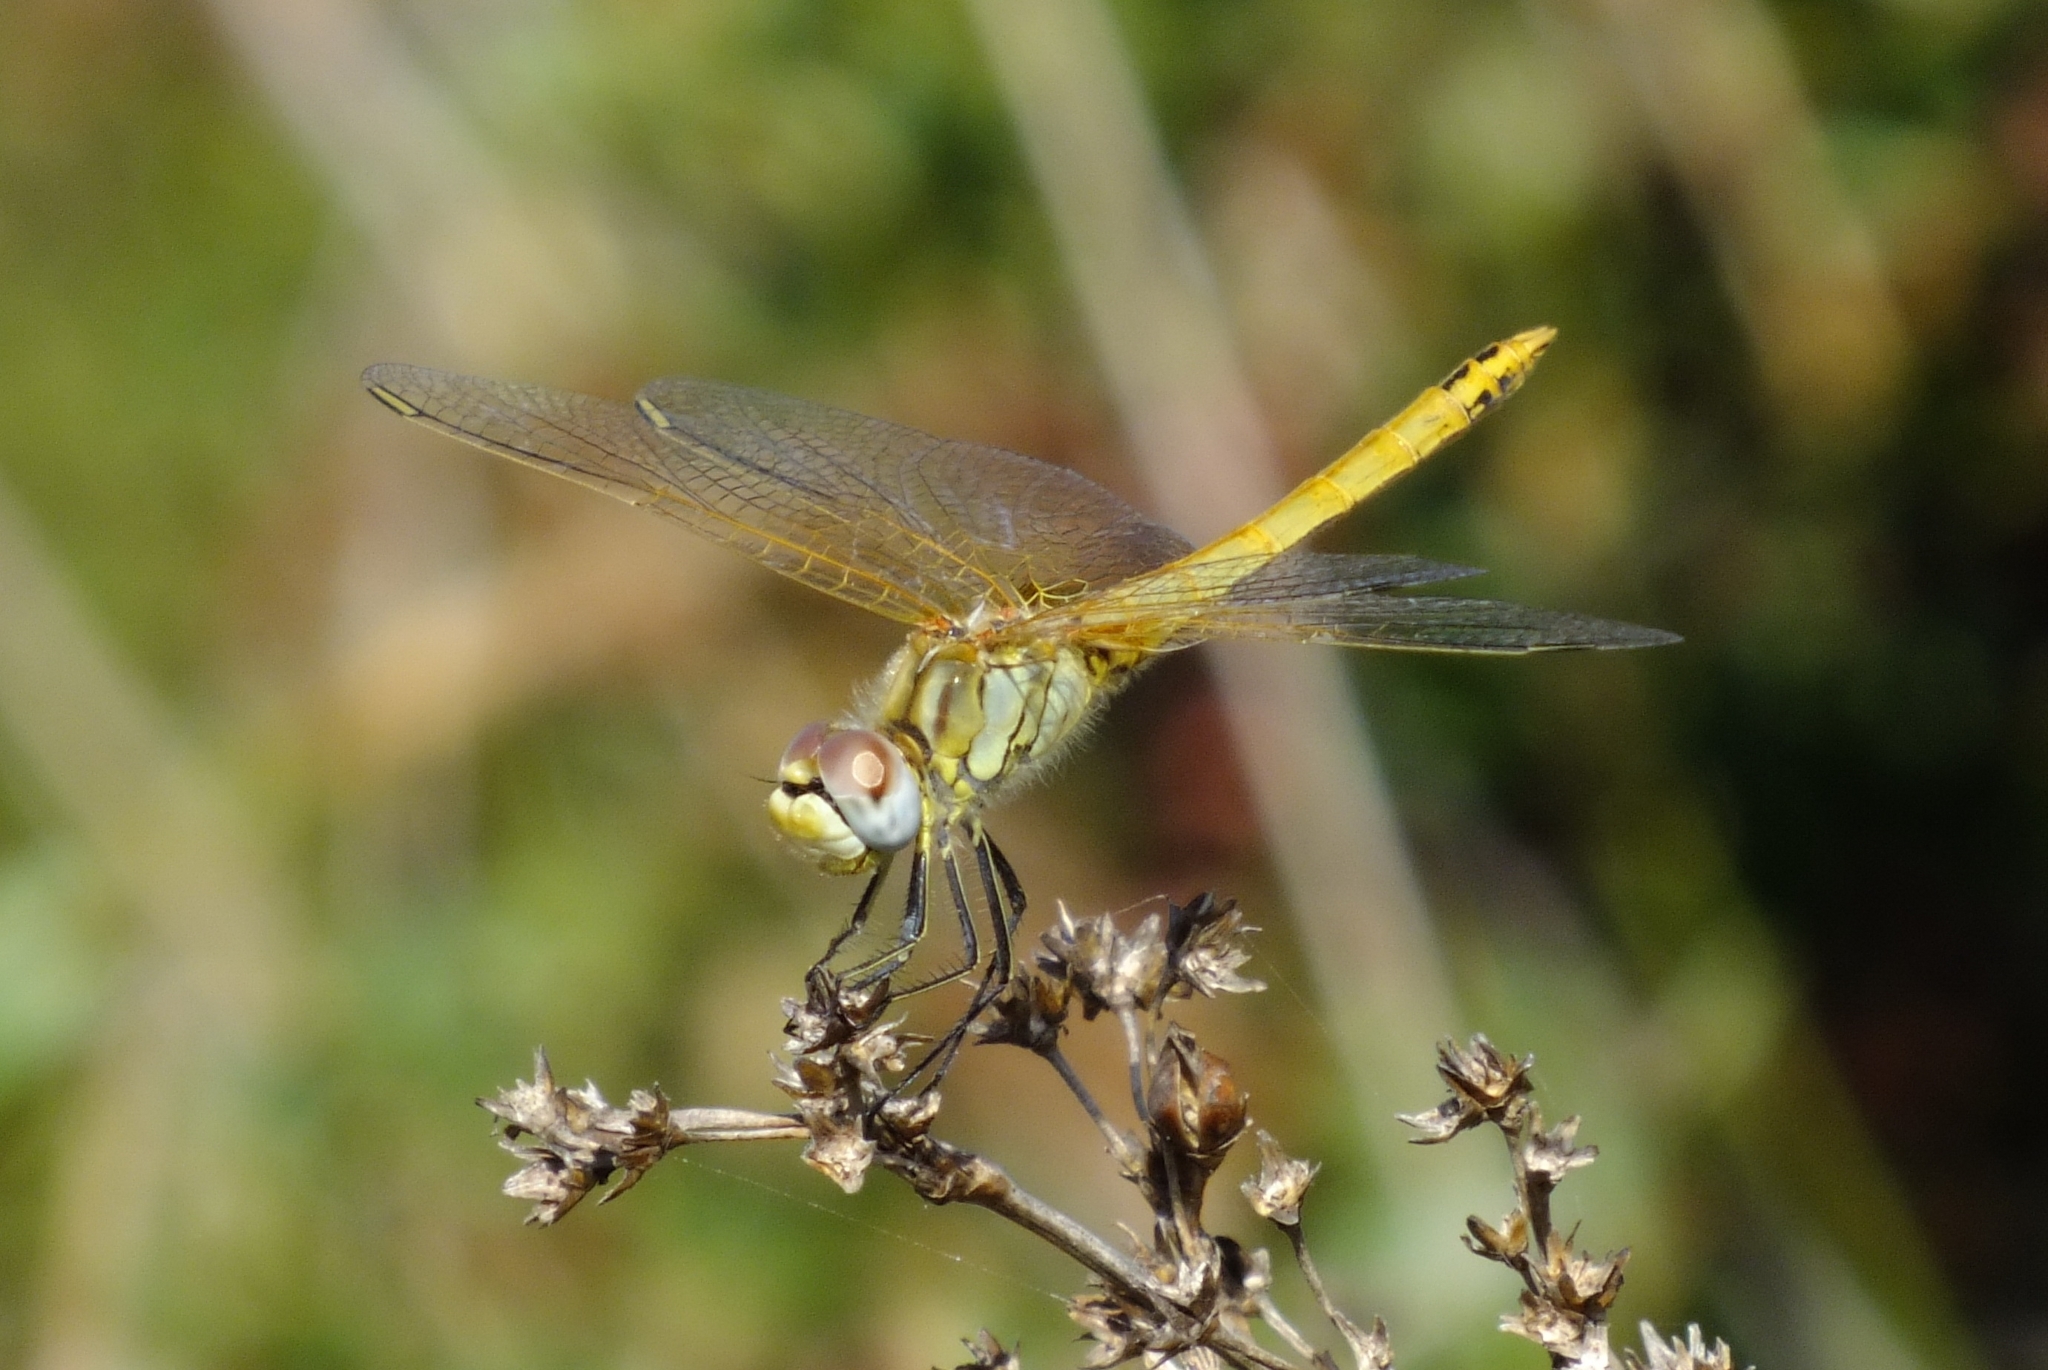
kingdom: Animalia
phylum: Arthropoda
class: Insecta
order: Odonata
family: Libellulidae
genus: Sympetrum
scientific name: Sympetrum fonscolombii
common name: Red-veined darter
